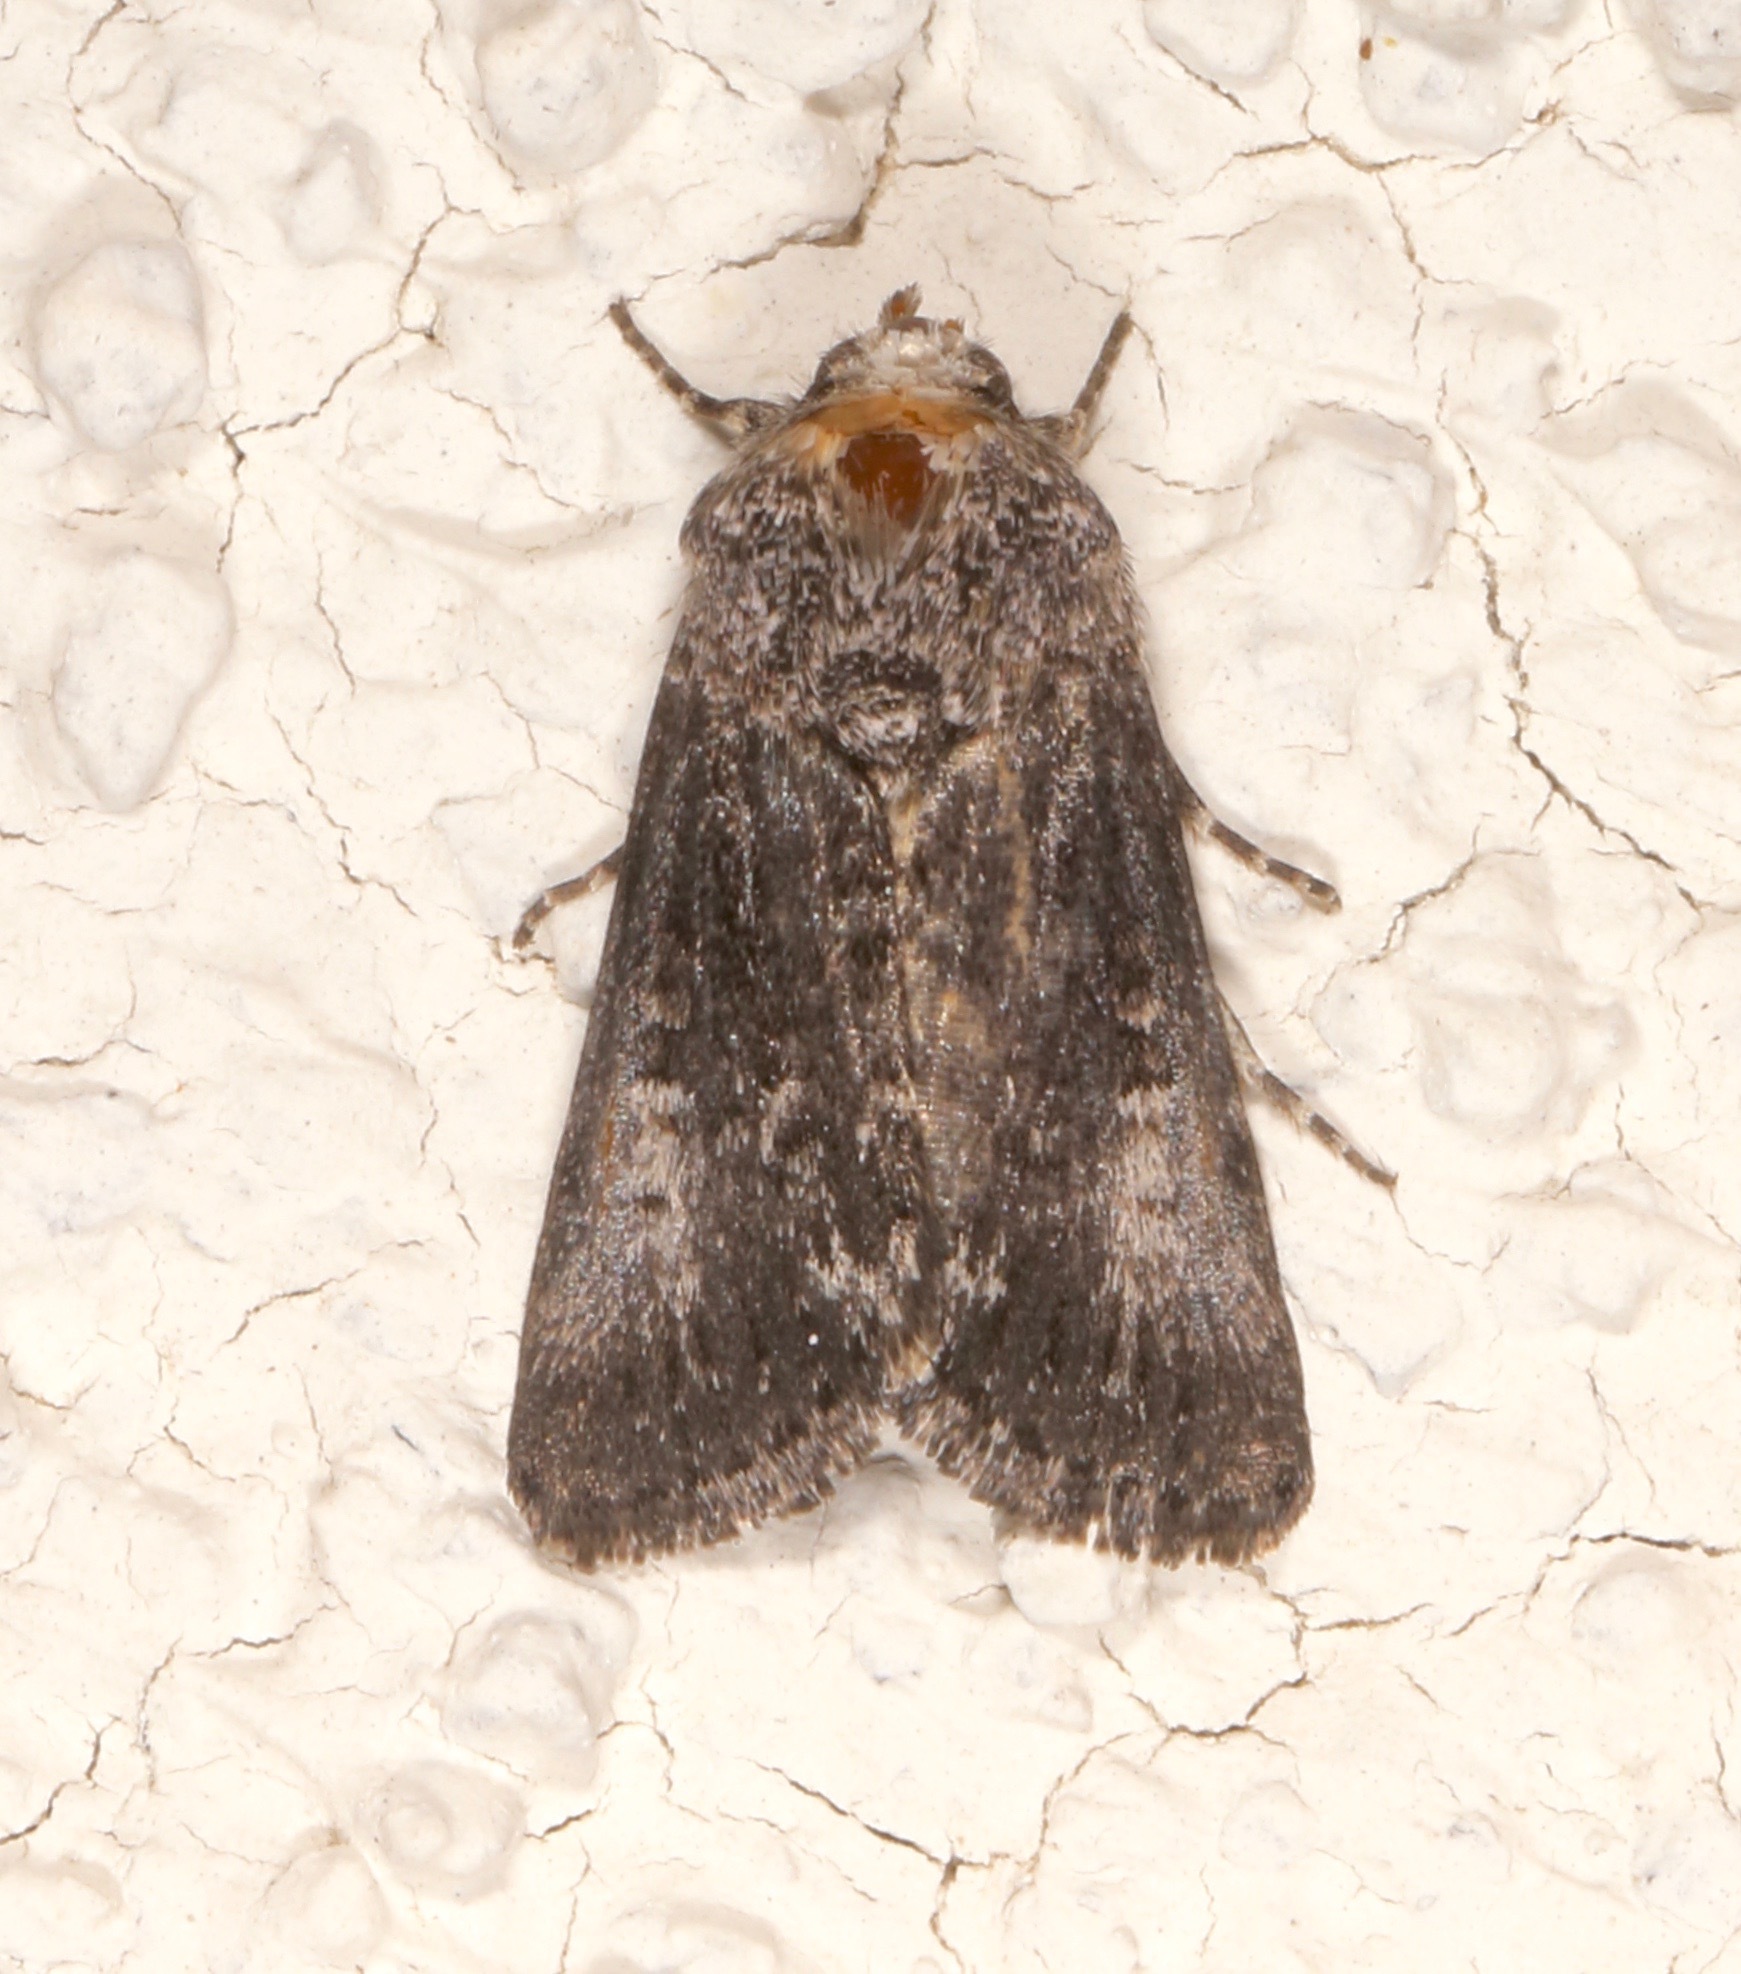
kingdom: Animalia
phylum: Arthropoda
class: Insecta
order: Lepidoptera
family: Noctuidae
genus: Sympistis
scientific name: Sympistis corusca
